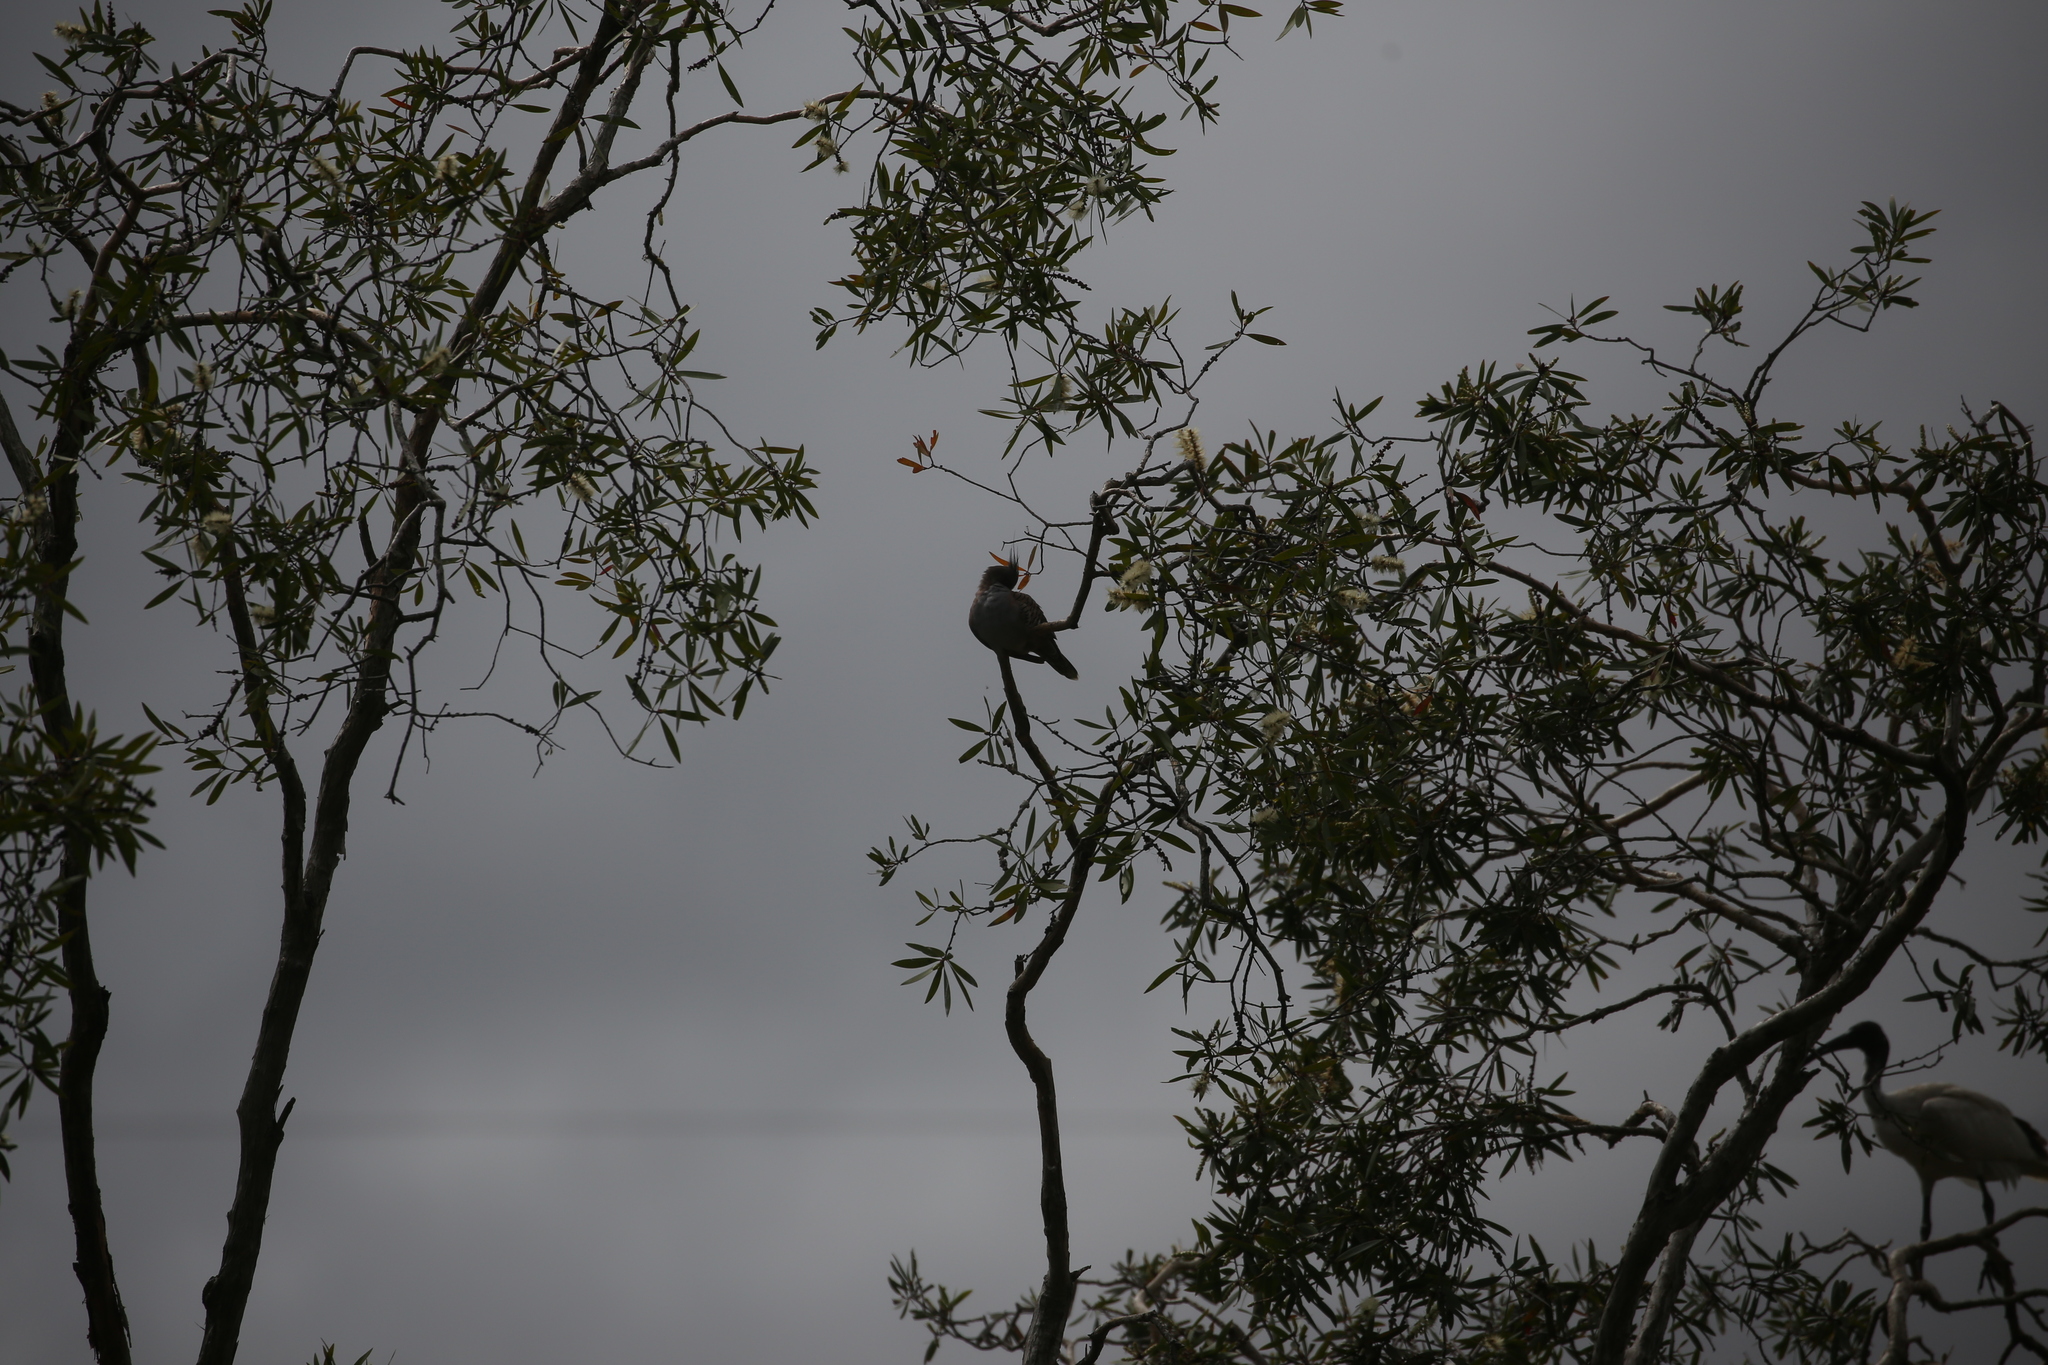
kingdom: Animalia
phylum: Chordata
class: Aves
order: Columbiformes
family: Columbidae
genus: Ocyphaps
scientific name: Ocyphaps lophotes
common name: Crested pigeon
